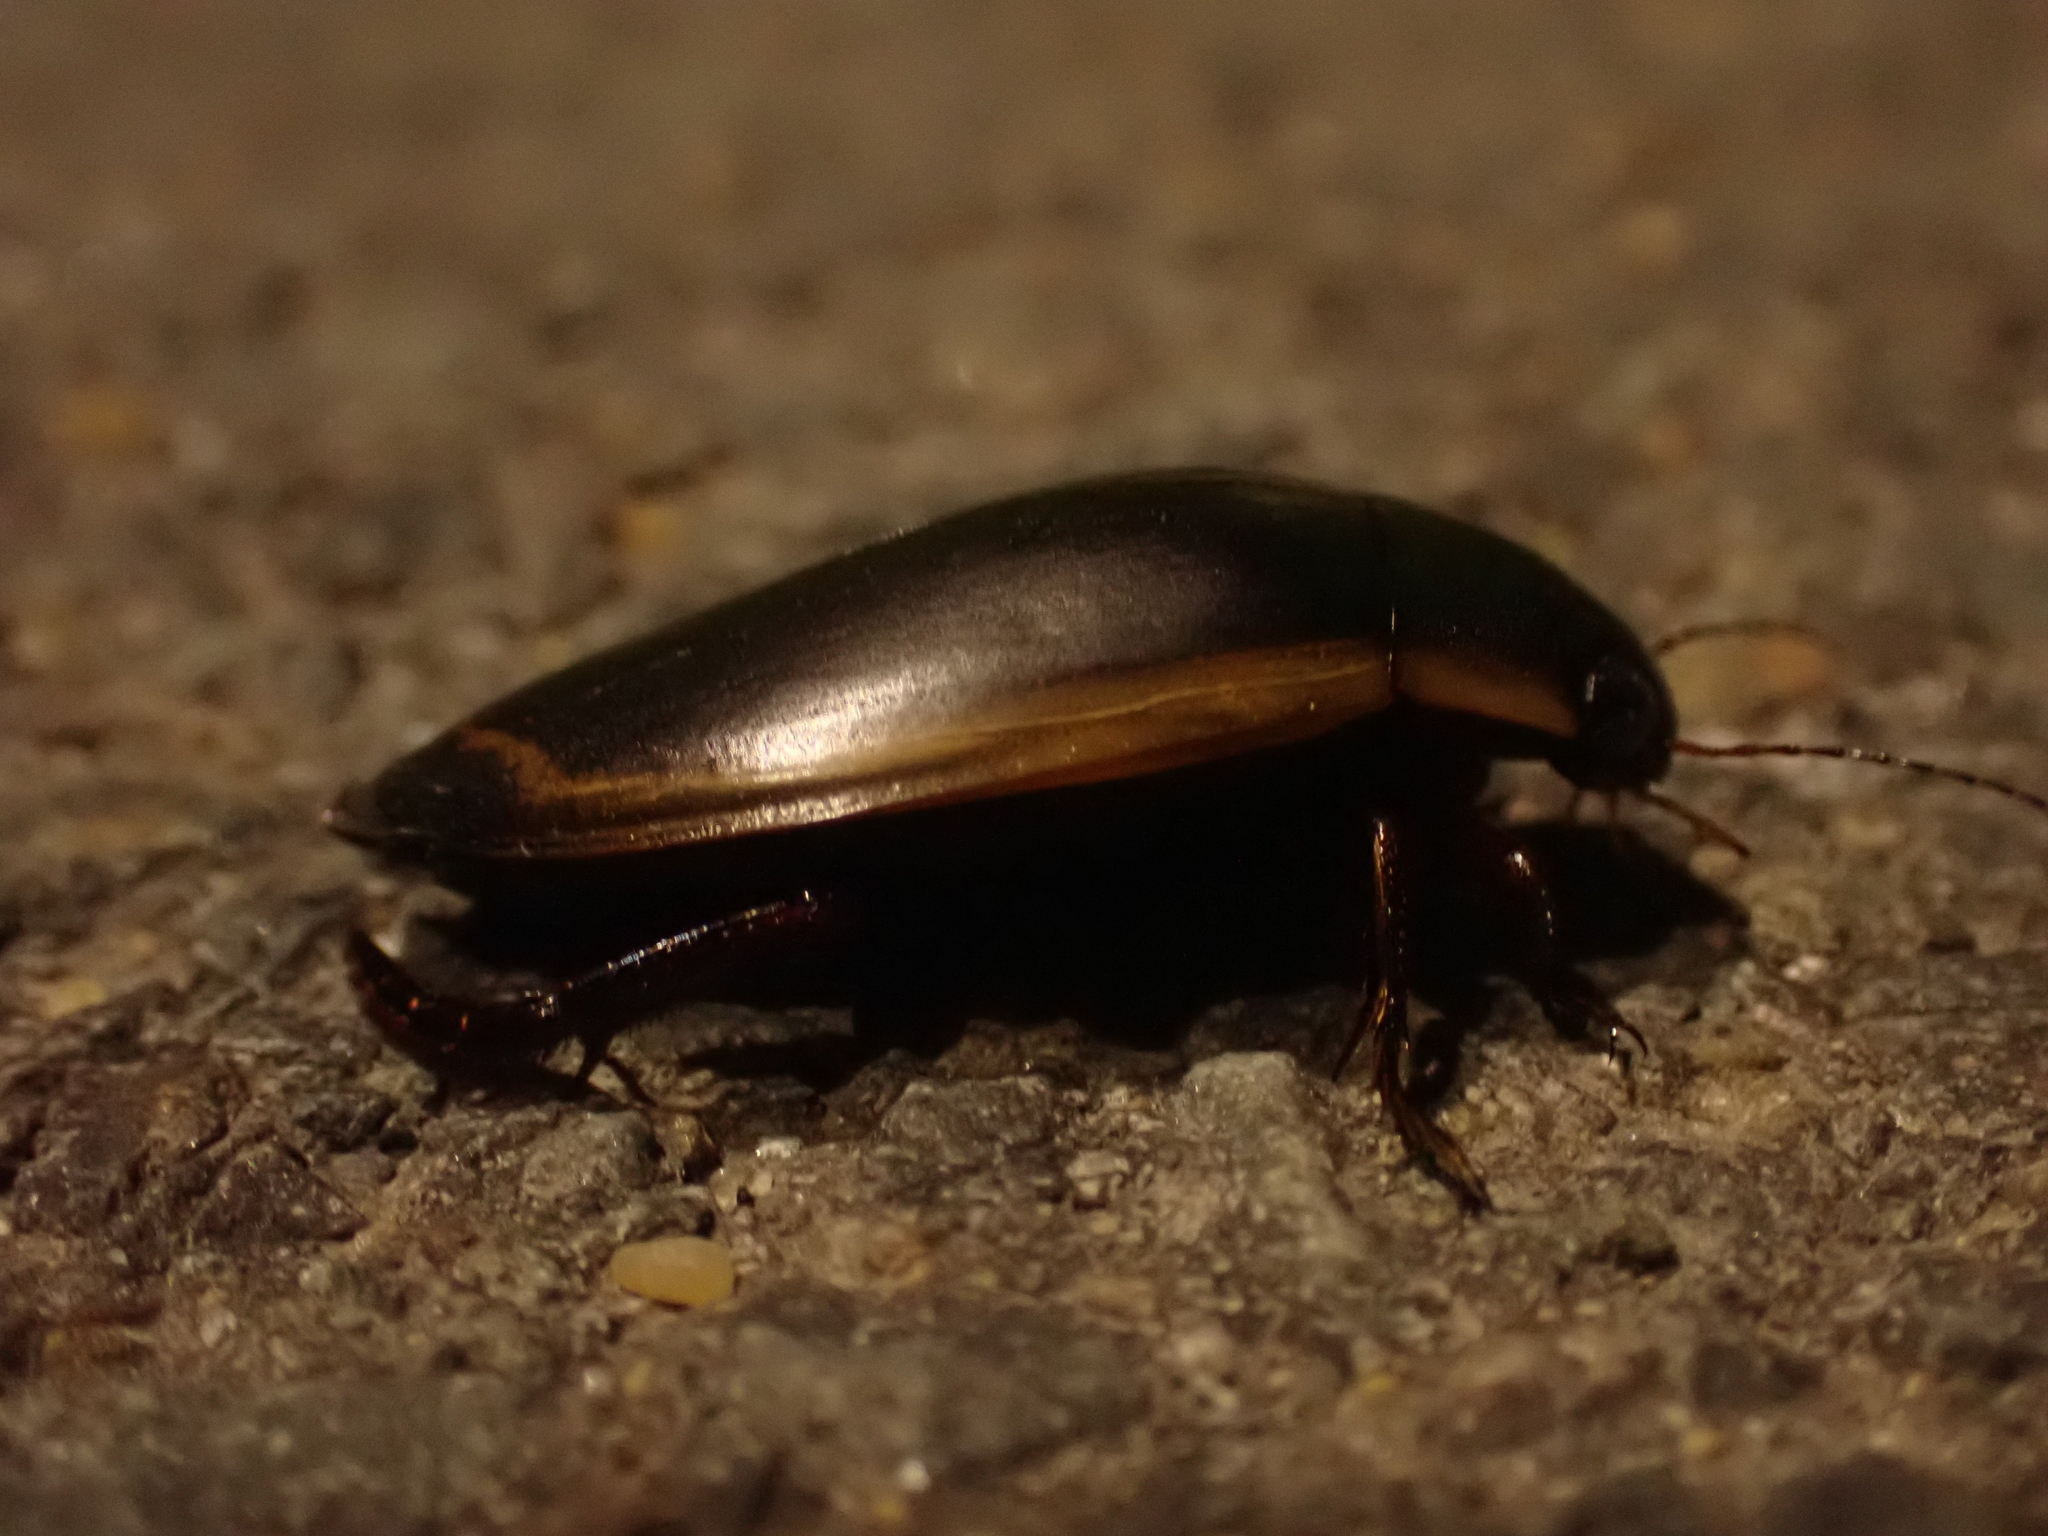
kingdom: Animalia
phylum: Arthropoda
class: Insecta
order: Coleoptera
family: Dytiscidae
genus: Dytiscus
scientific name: Dytiscus verticalis
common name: Vertical diving beetle
